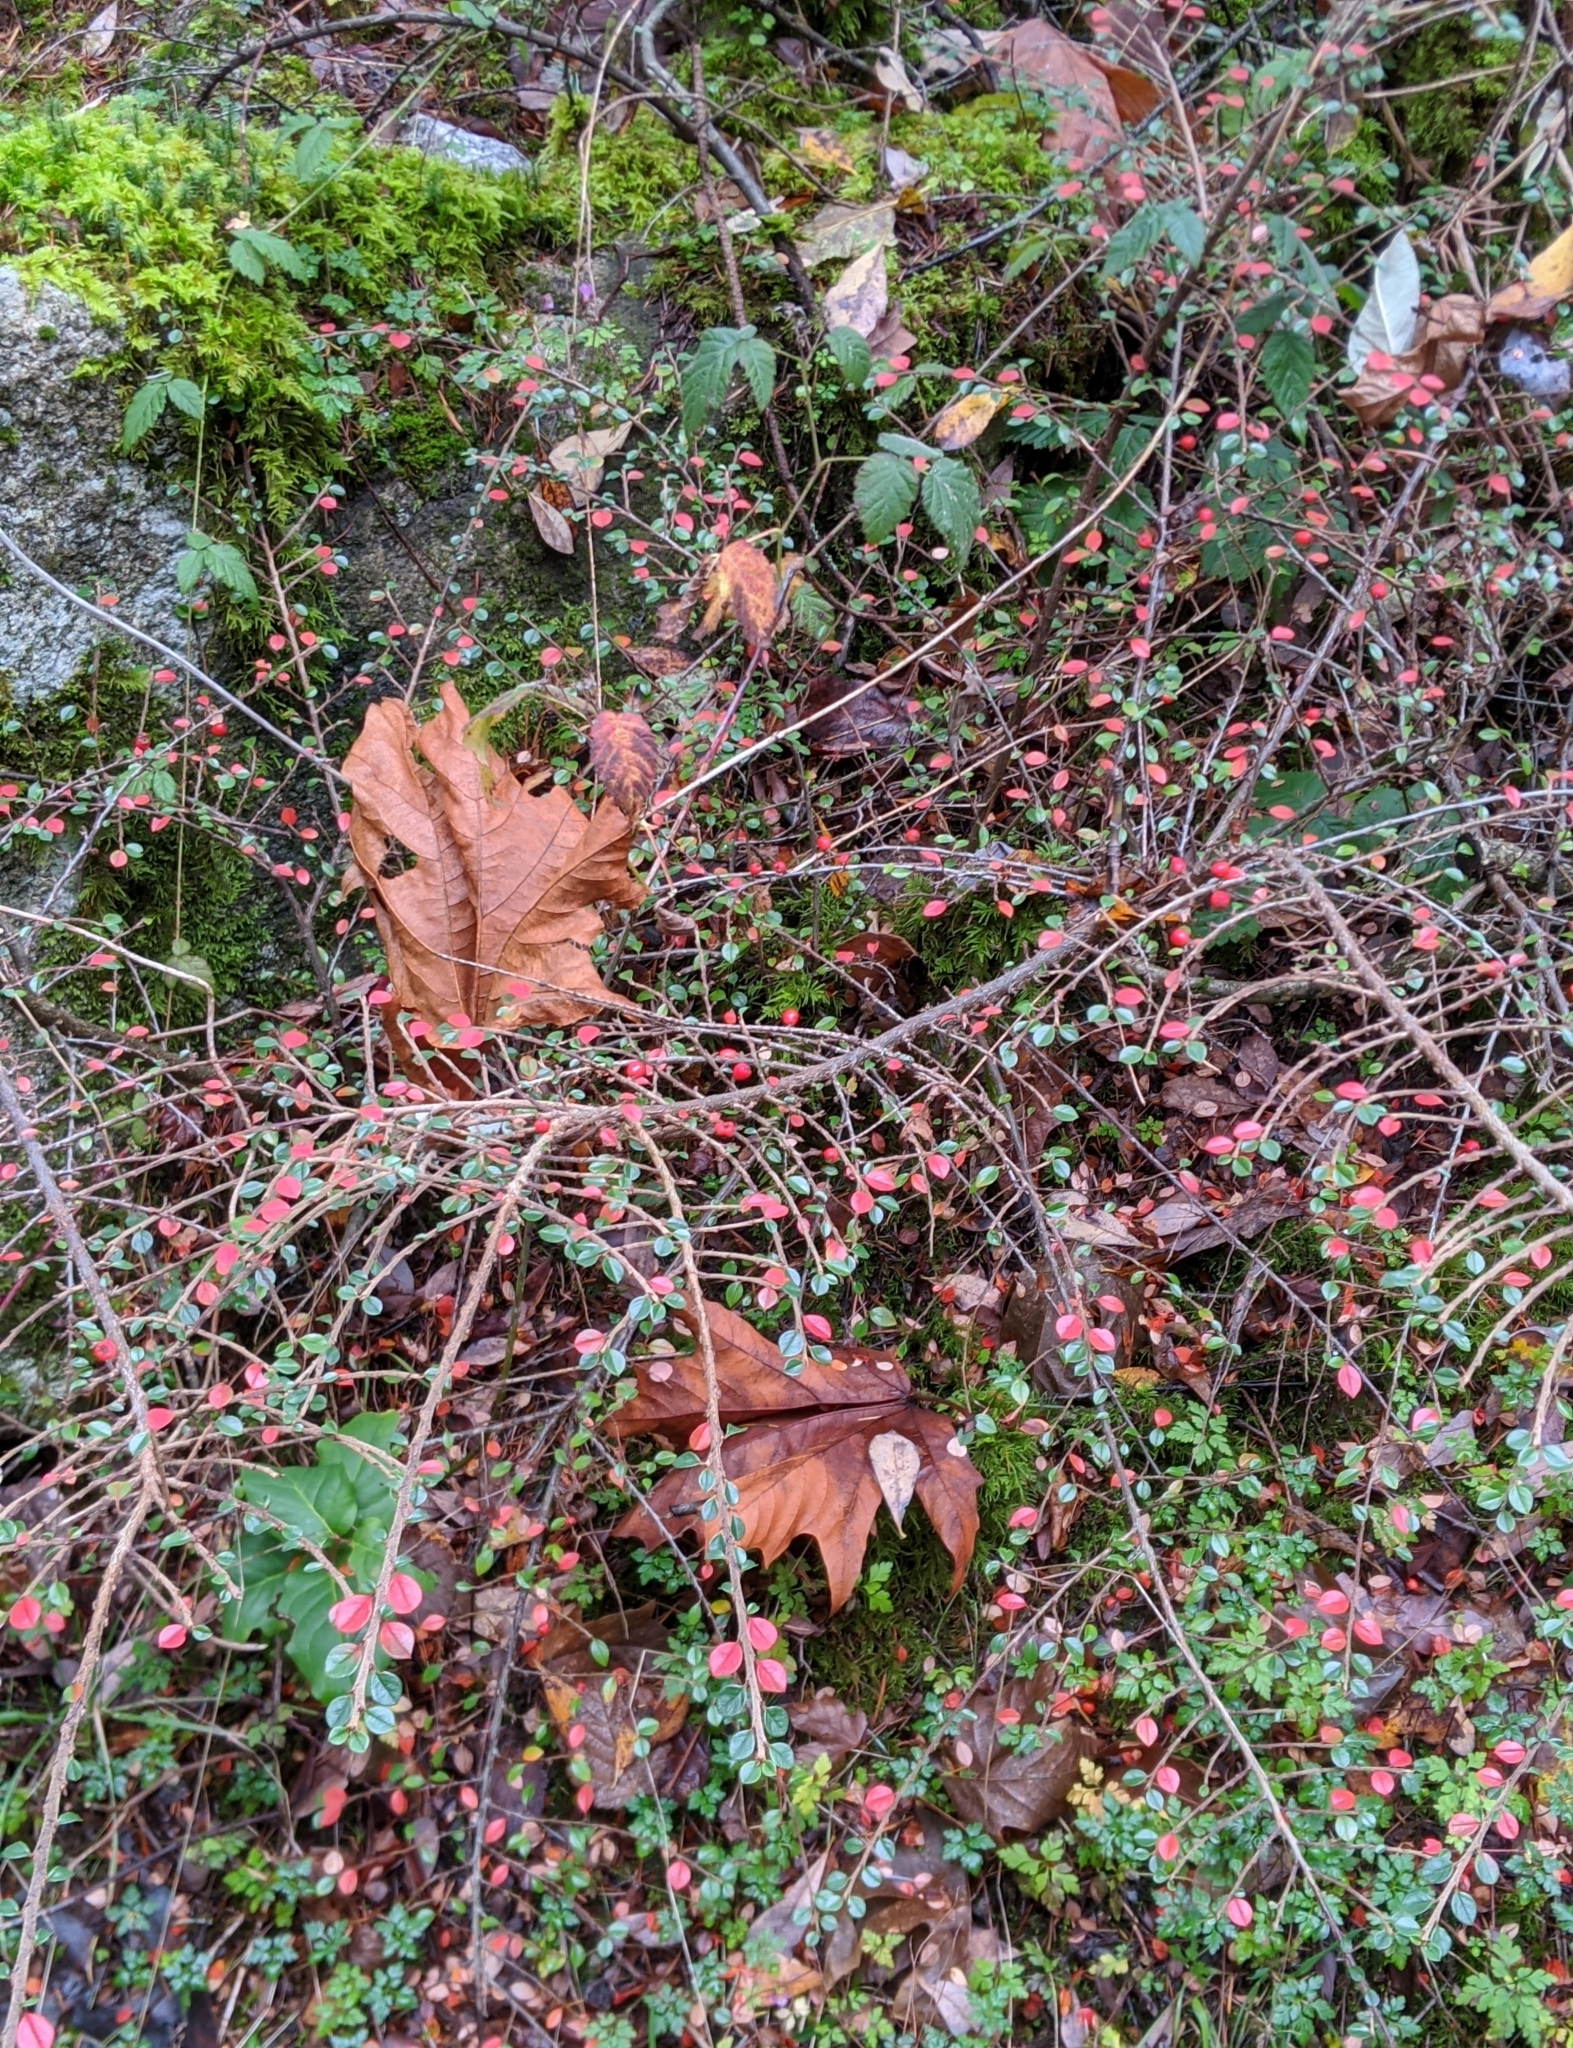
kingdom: Plantae
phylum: Tracheophyta
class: Magnoliopsida
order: Rosales
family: Rosaceae
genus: Cotoneaster
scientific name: Cotoneaster horizontalis
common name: Wall cotoneaster
